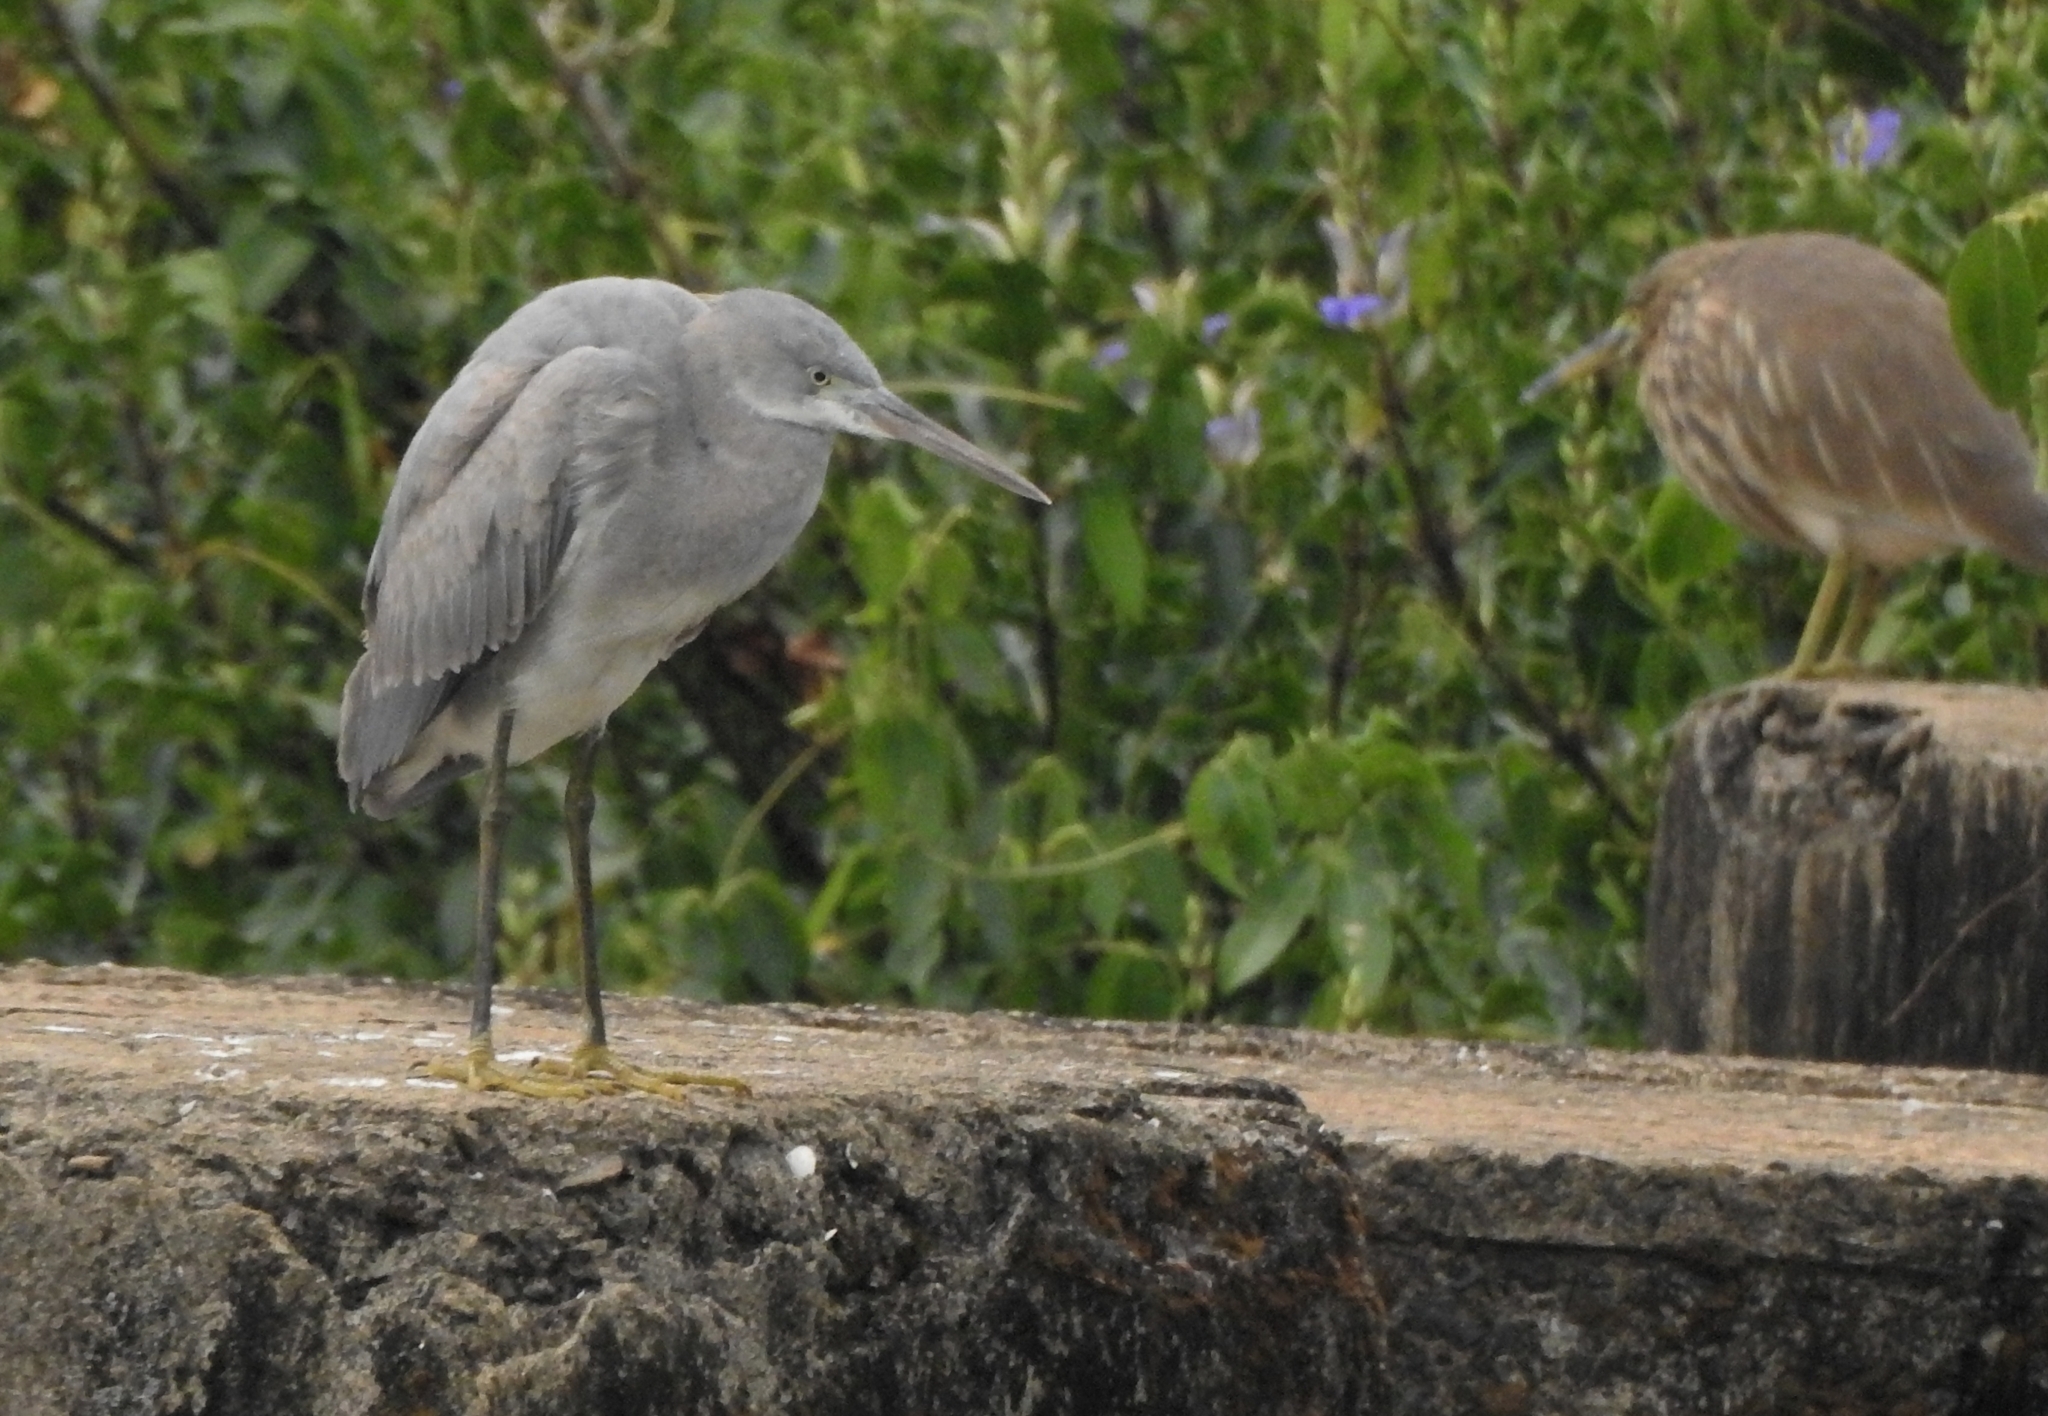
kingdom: Animalia
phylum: Chordata
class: Aves
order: Pelecaniformes
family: Ardeidae
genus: Egretta
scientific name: Egretta gularis
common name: Western reef-heron
